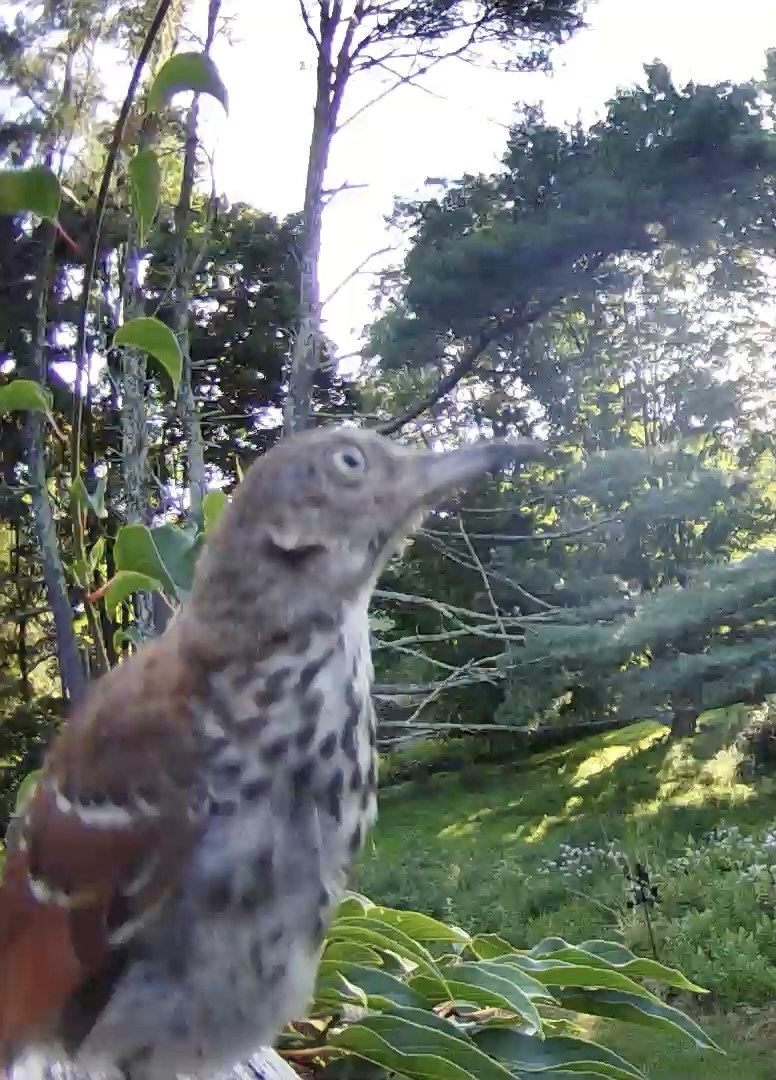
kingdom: Animalia
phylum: Chordata
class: Aves
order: Passeriformes
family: Mimidae
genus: Toxostoma
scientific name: Toxostoma rufum
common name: Brown thrasher
